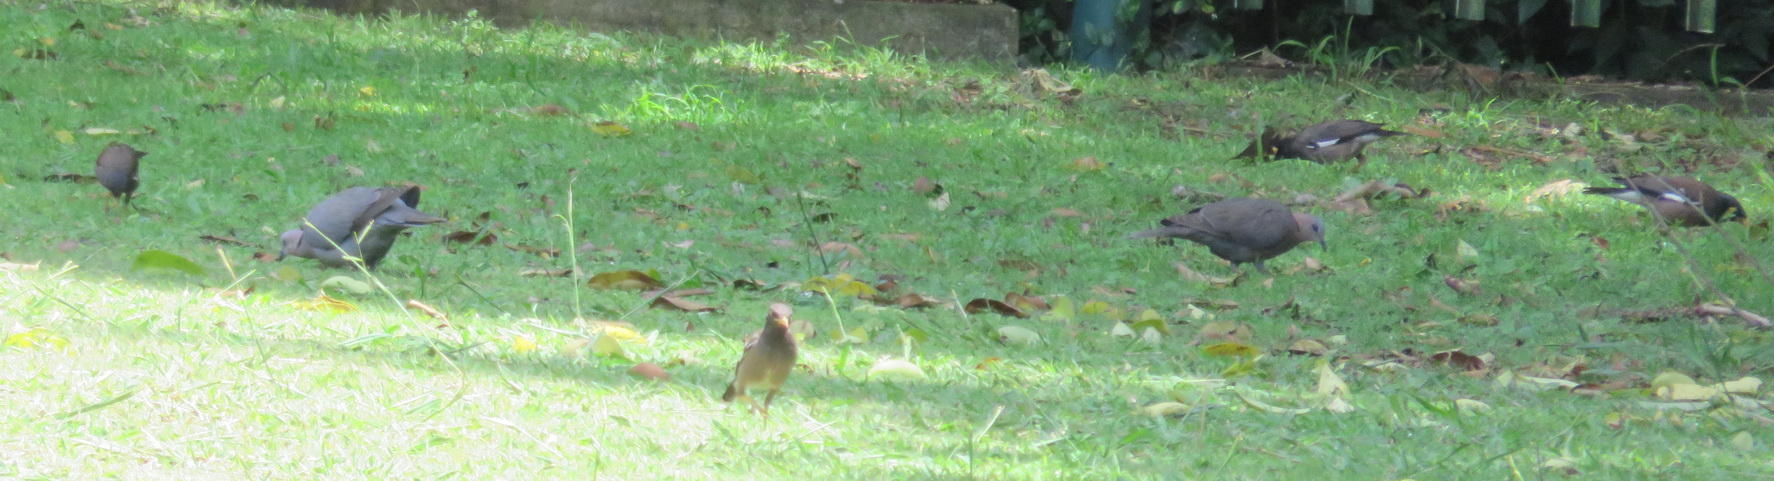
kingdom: Animalia
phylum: Chordata
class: Aves
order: Passeriformes
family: Sturnidae
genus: Acridotheres
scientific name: Acridotheres tristis
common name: Common myna
